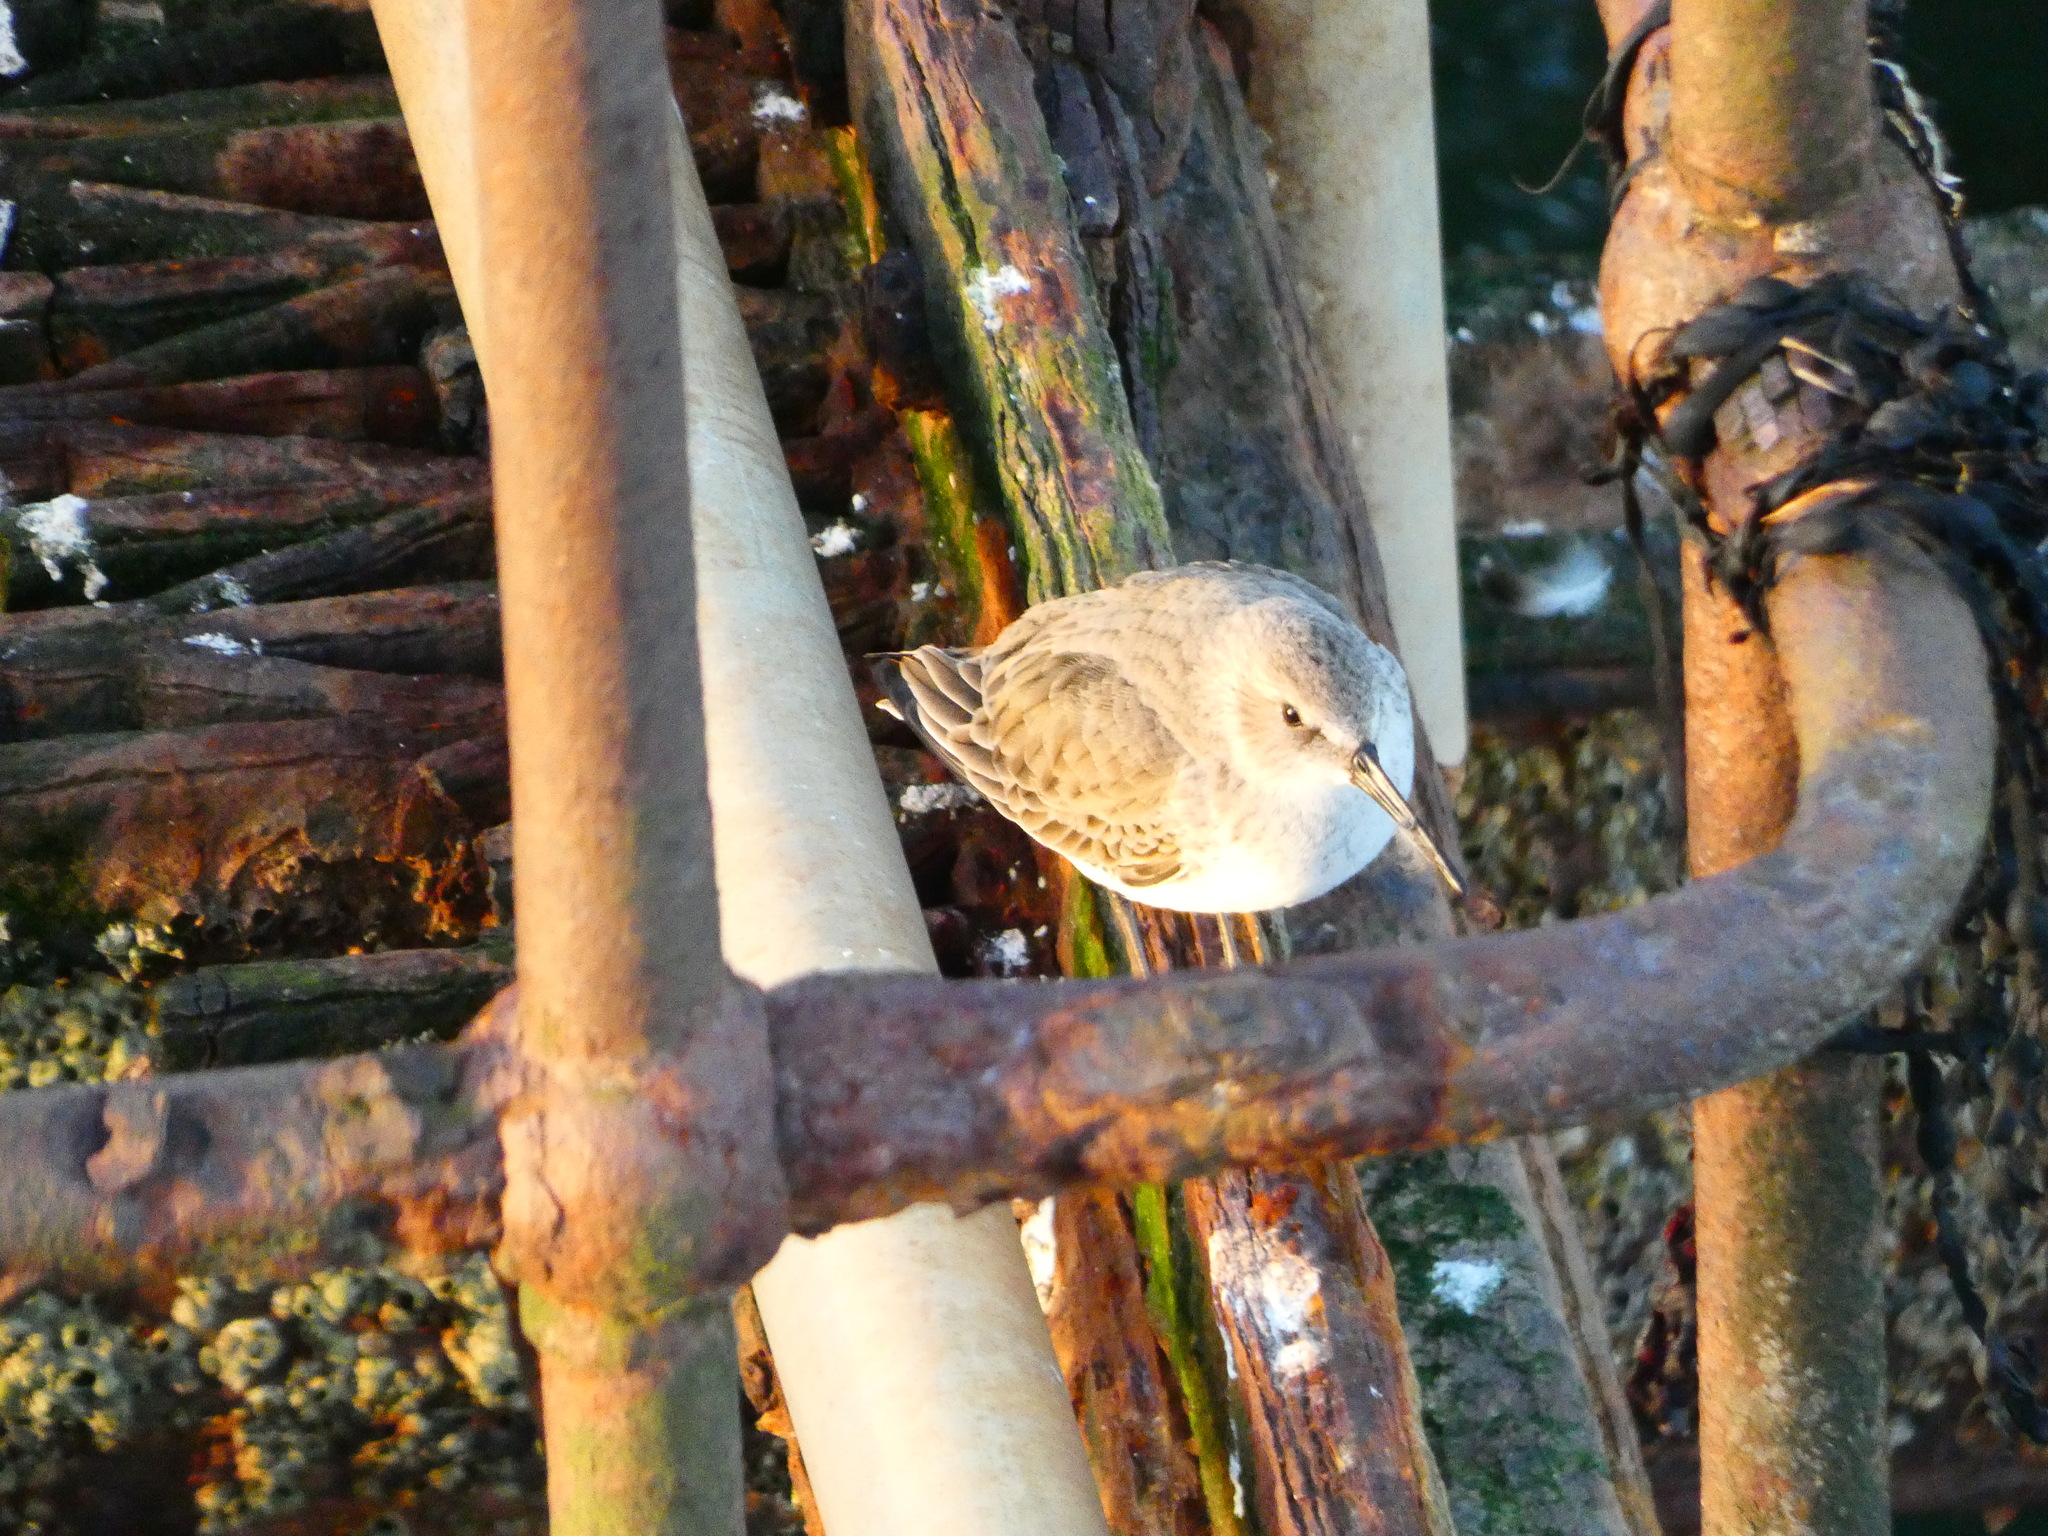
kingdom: Animalia
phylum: Chordata
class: Aves
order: Charadriiformes
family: Scolopacidae
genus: Calidris
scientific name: Calidris alpina
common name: Dunlin
